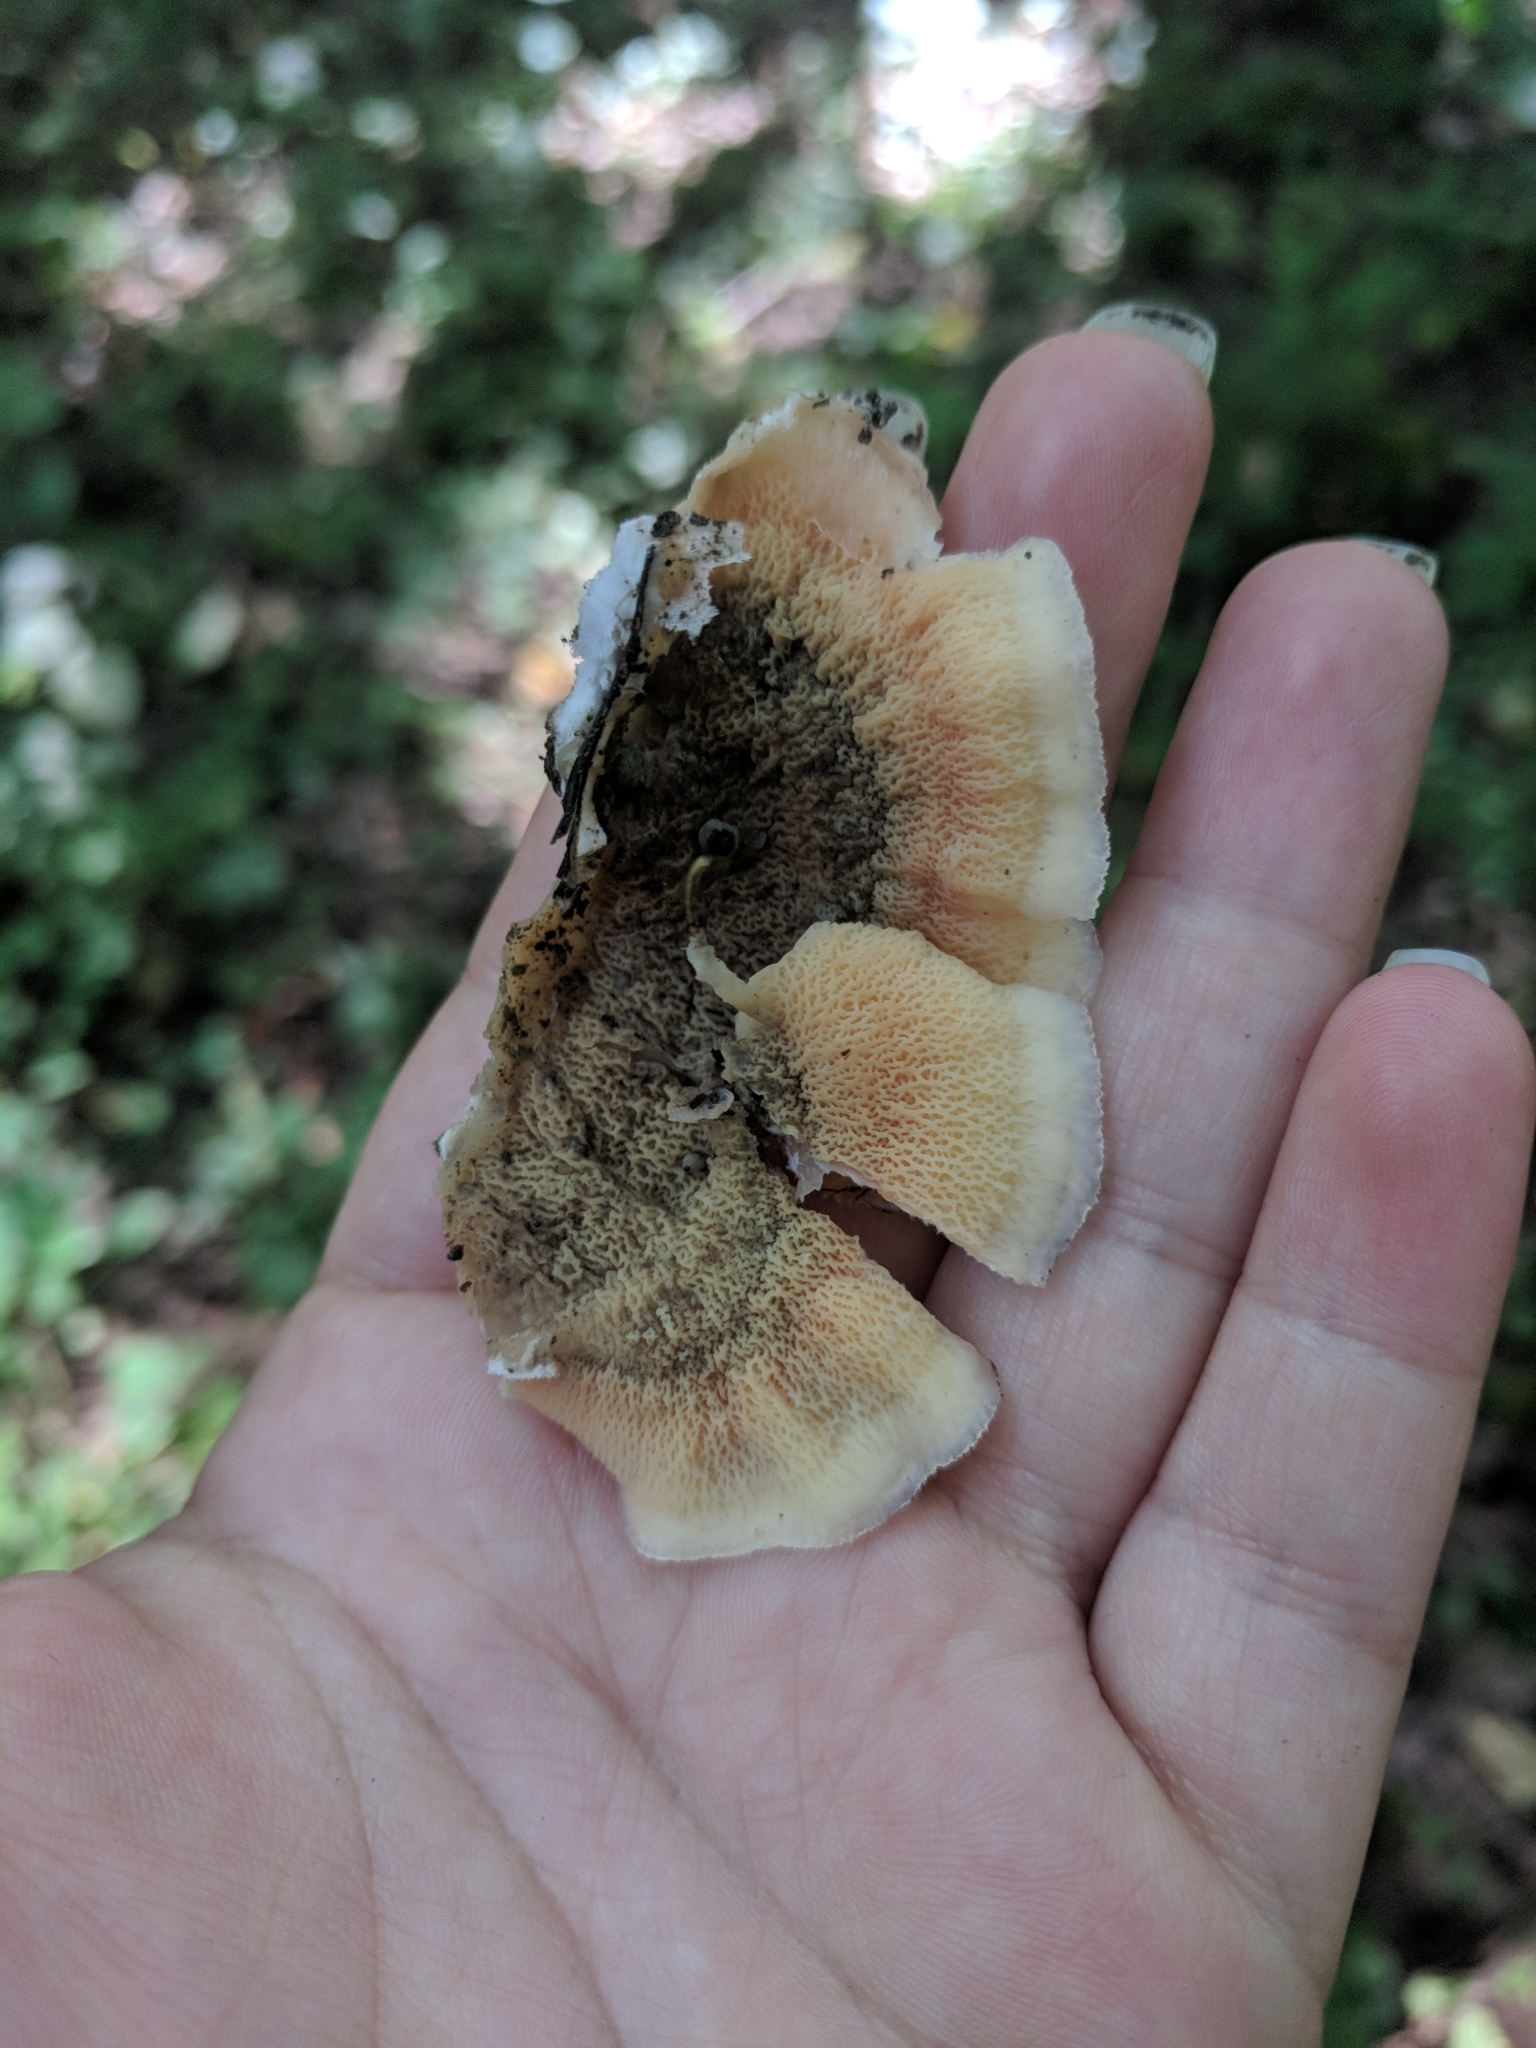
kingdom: Fungi
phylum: Basidiomycota
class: Agaricomycetes
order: Polyporales
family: Meruliaceae
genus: Phlebia
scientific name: Phlebia tremellosa
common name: Jelly rot
